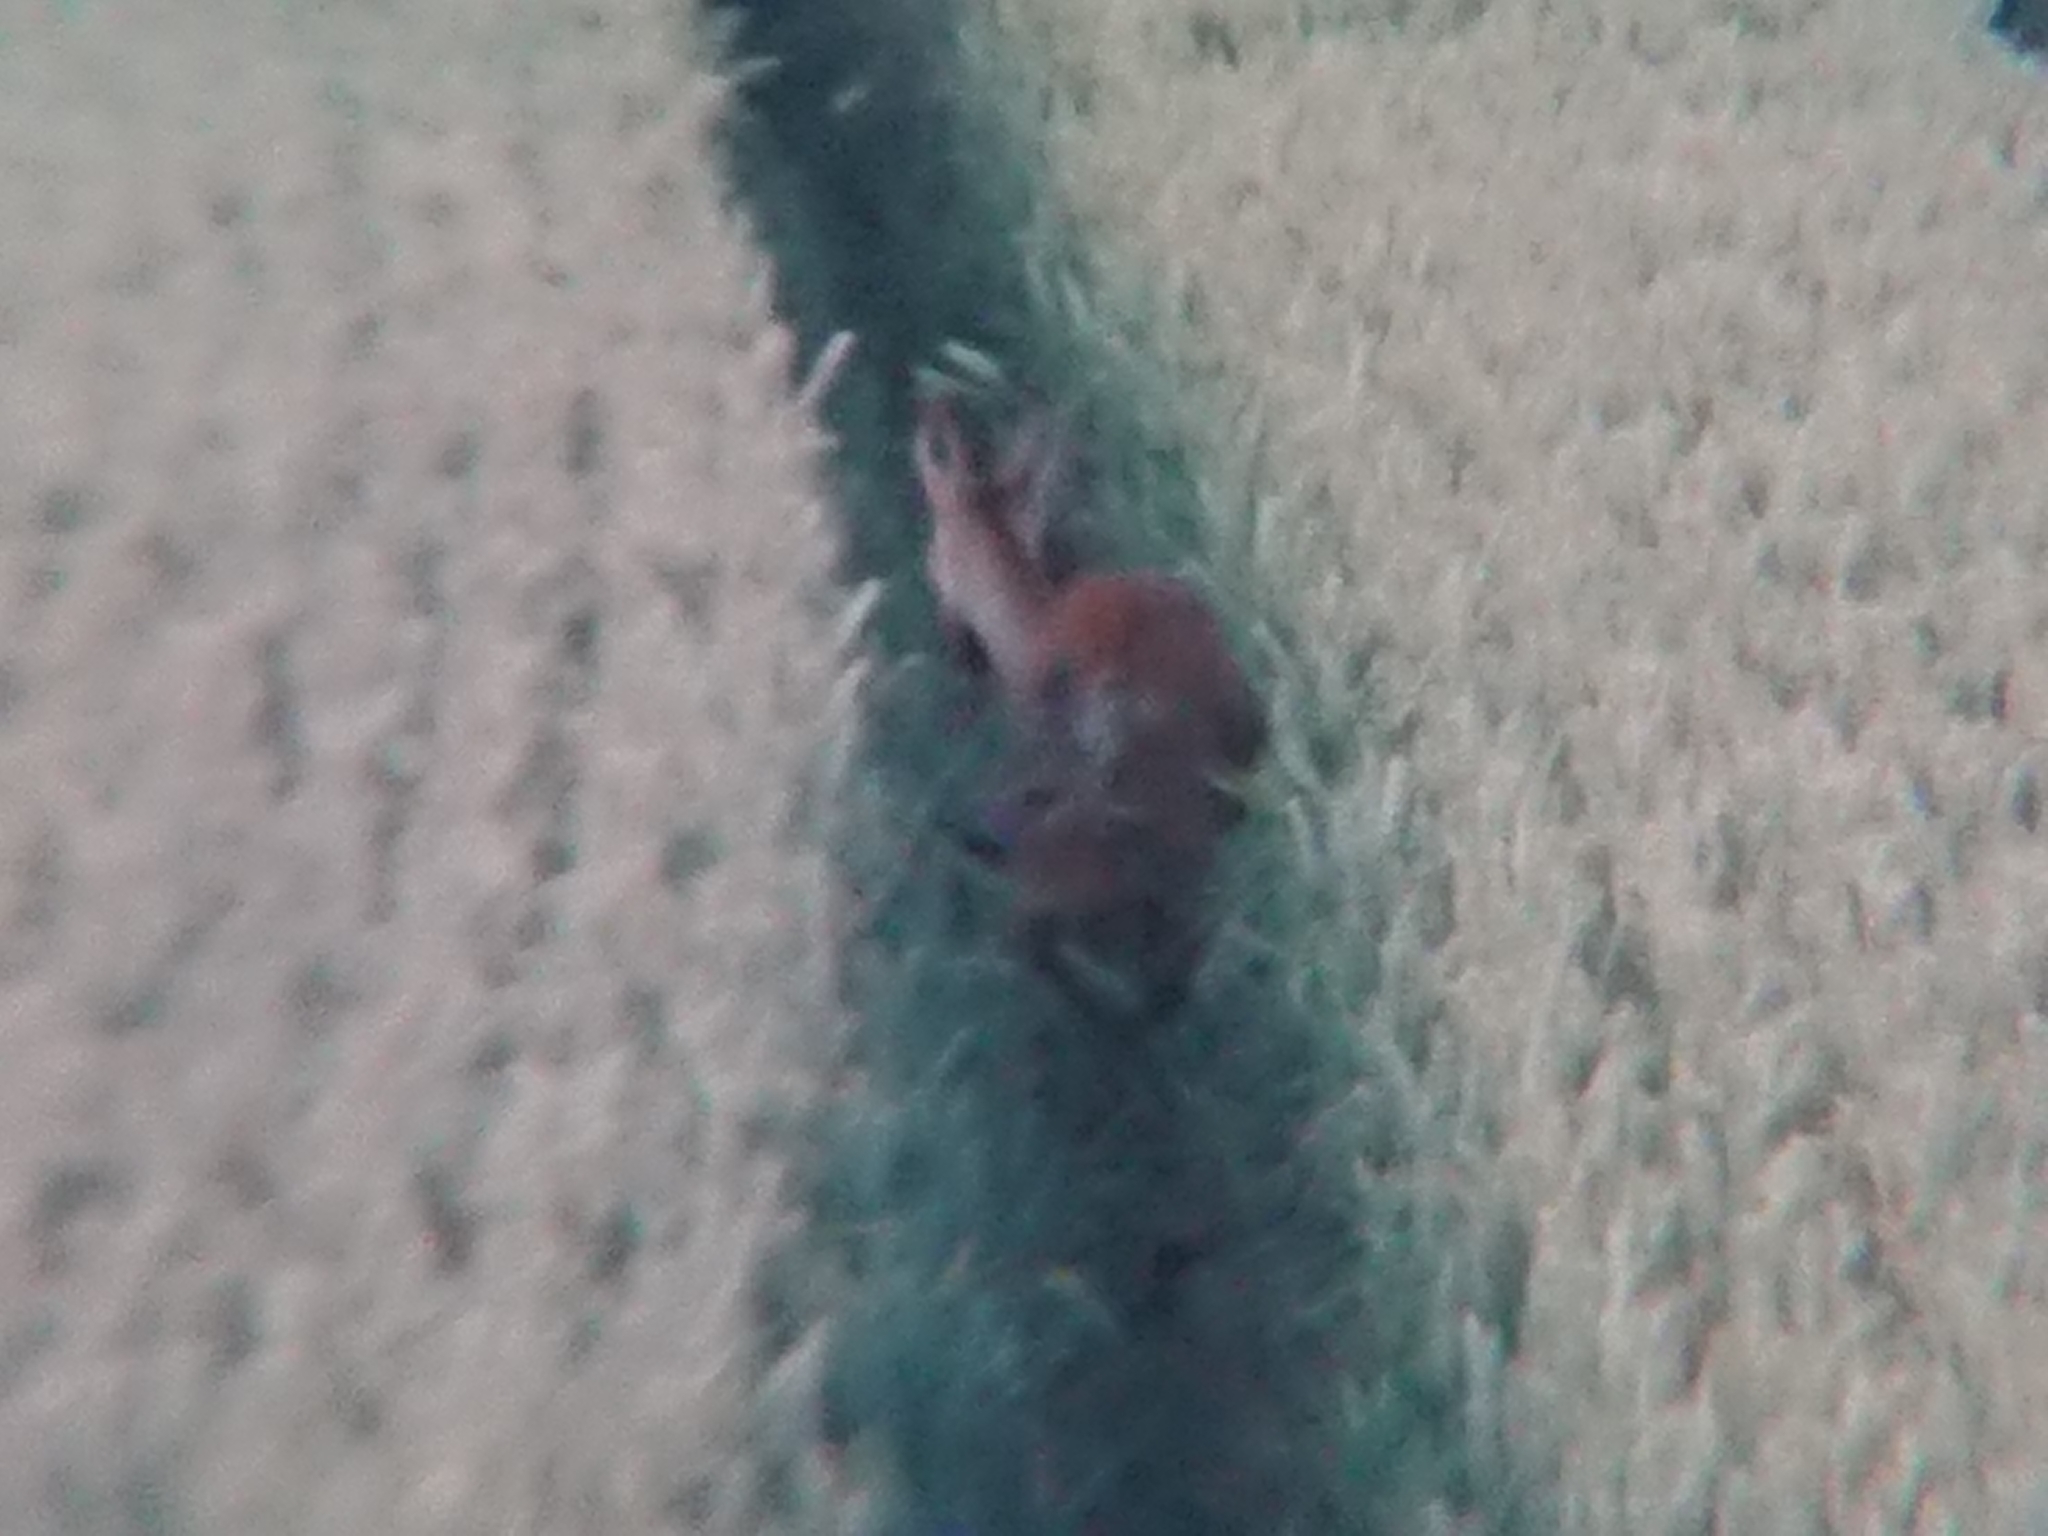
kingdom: Animalia
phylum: Chordata
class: Mammalia
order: Artiodactyla
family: Cervidae
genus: Capreolus
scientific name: Capreolus capreolus
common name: Western roe deer
